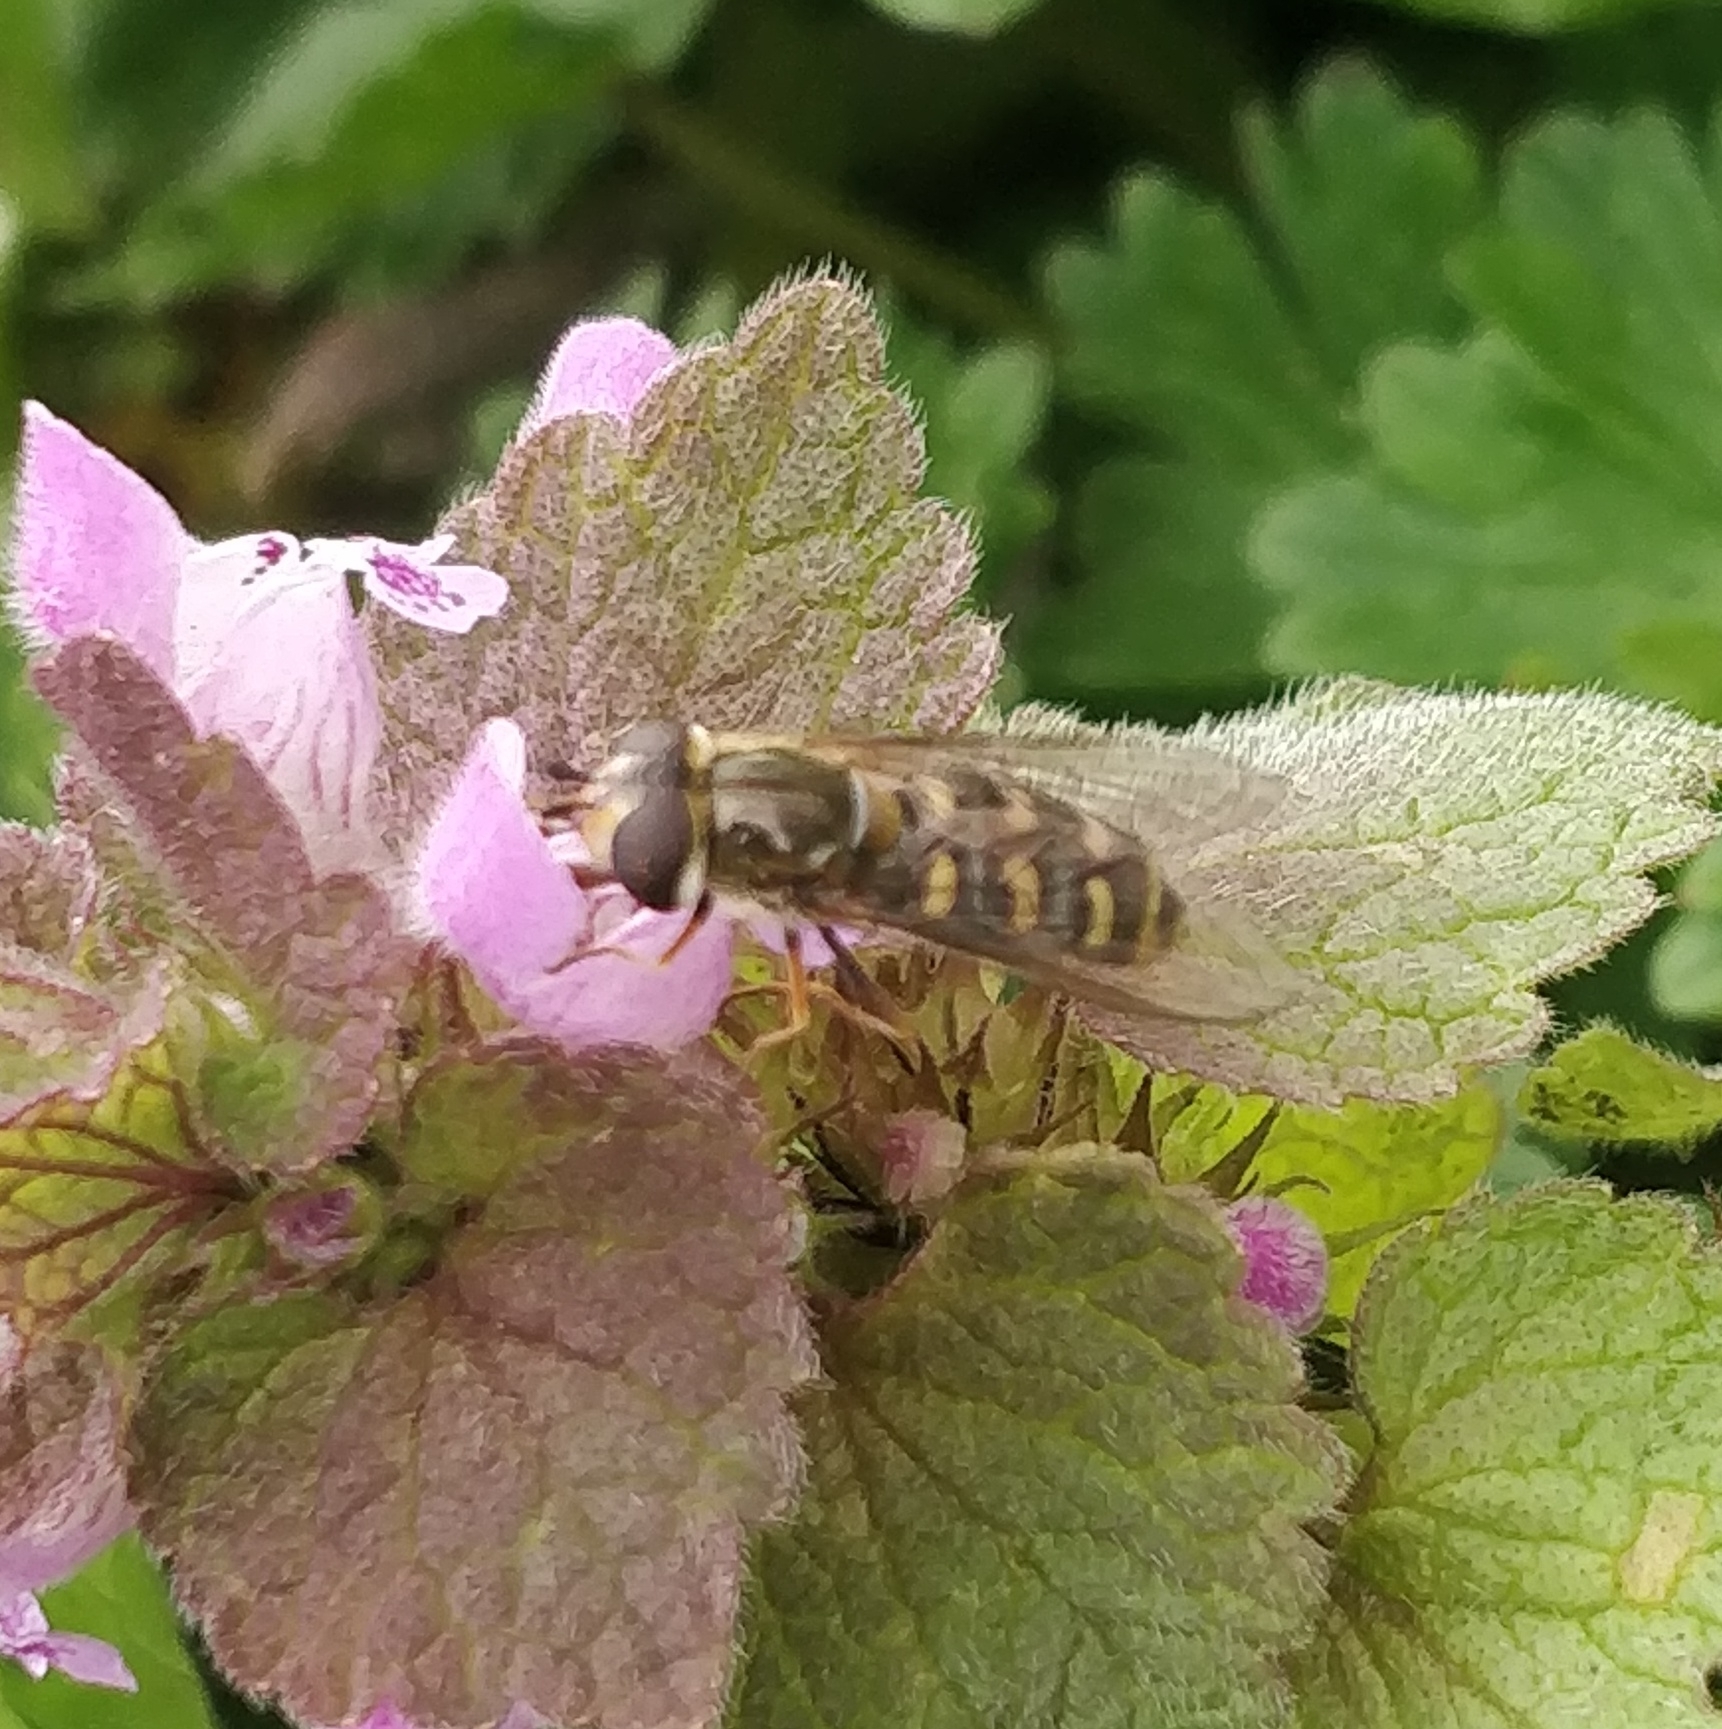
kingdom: Animalia
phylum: Arthropoda
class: Insecta
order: Diptera
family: Syrphidae
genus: Eupeodes
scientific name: Eupeodes
